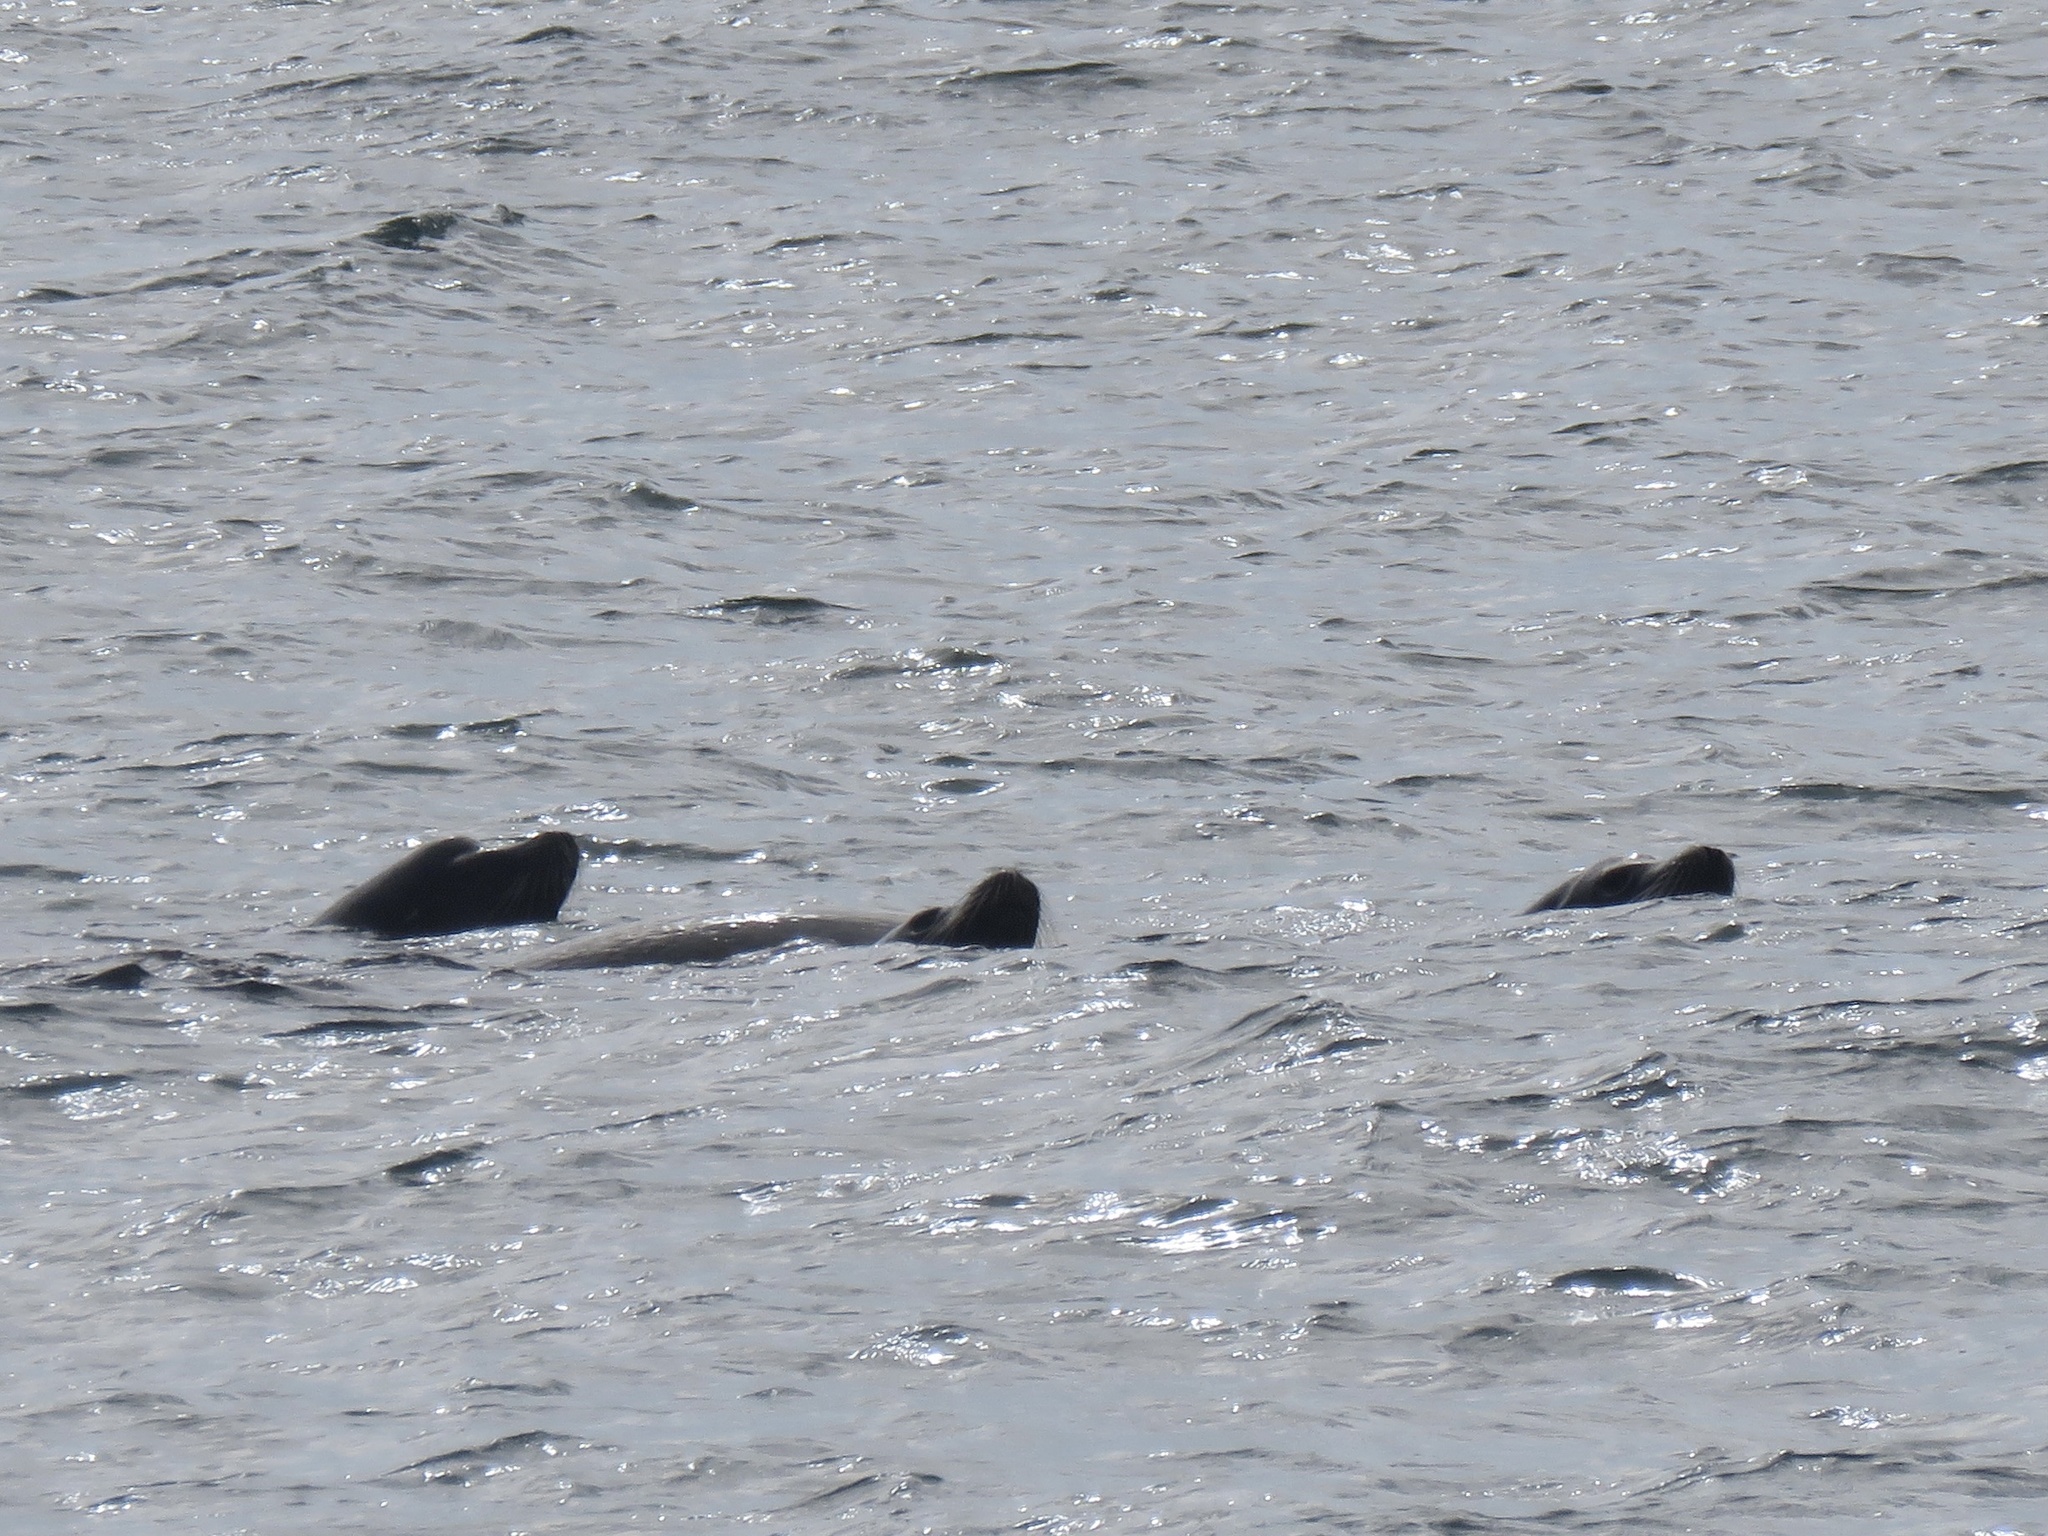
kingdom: Animalia
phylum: Chordata
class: Mammalia
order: Carnivora
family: Otariidae
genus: Zalophus
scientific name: Zalophus californianus
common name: California sea lion
